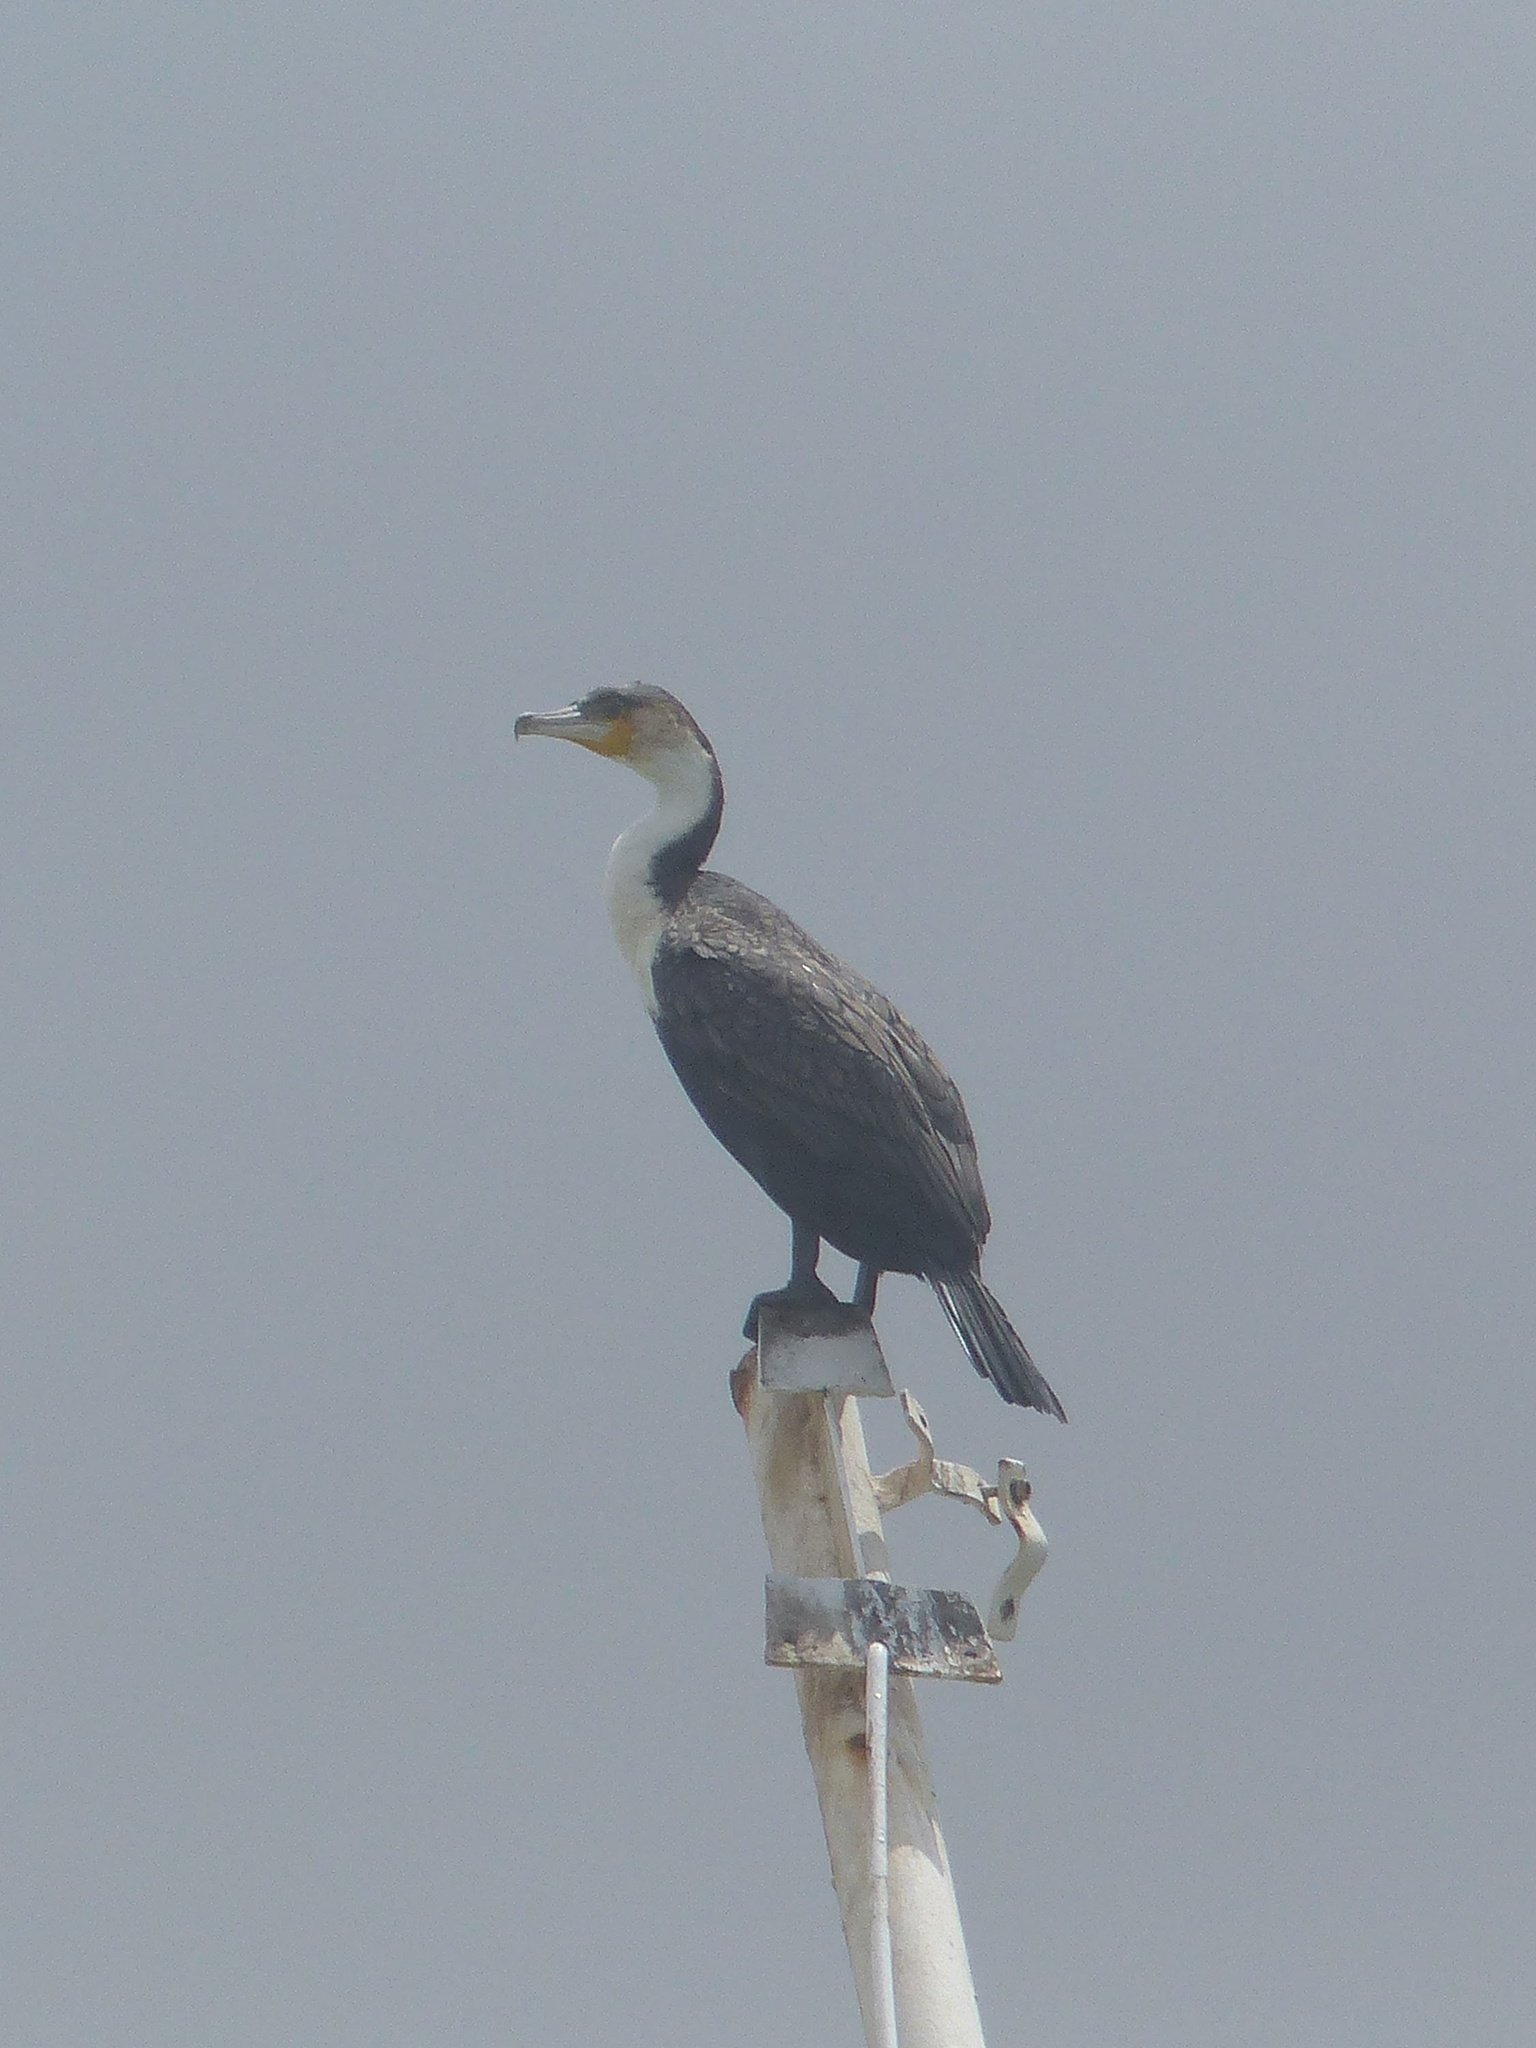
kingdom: Animalia
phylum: Chordata
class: Aves
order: Suliformes
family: Phalacrocoracidae
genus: Phalacrocorax
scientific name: Phalacrocorax carbo
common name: Great cormorant
